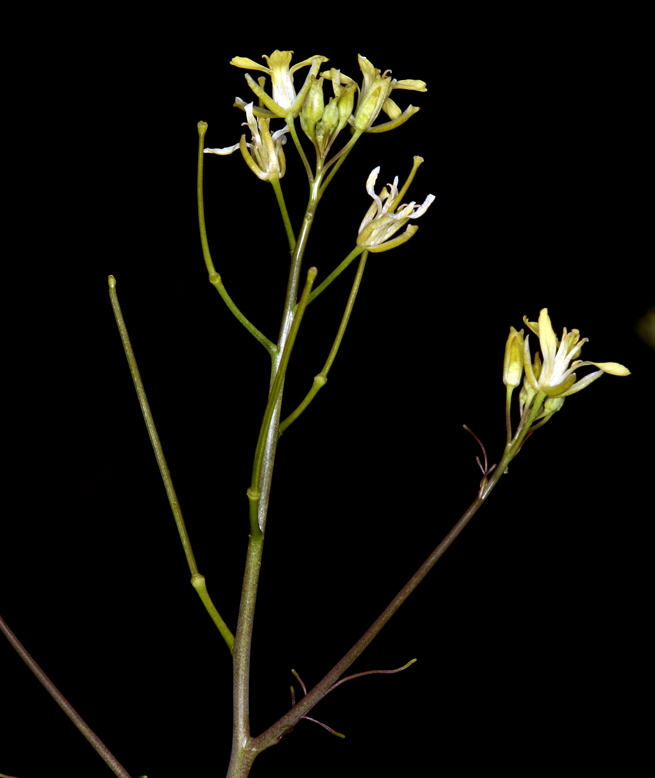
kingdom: Plantae
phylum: Tracheophyta
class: Magnoliopsida
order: Brassicales
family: Brassicaceae
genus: Sisymbrium
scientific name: Sisymbrium altissimum
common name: Tall rocket
